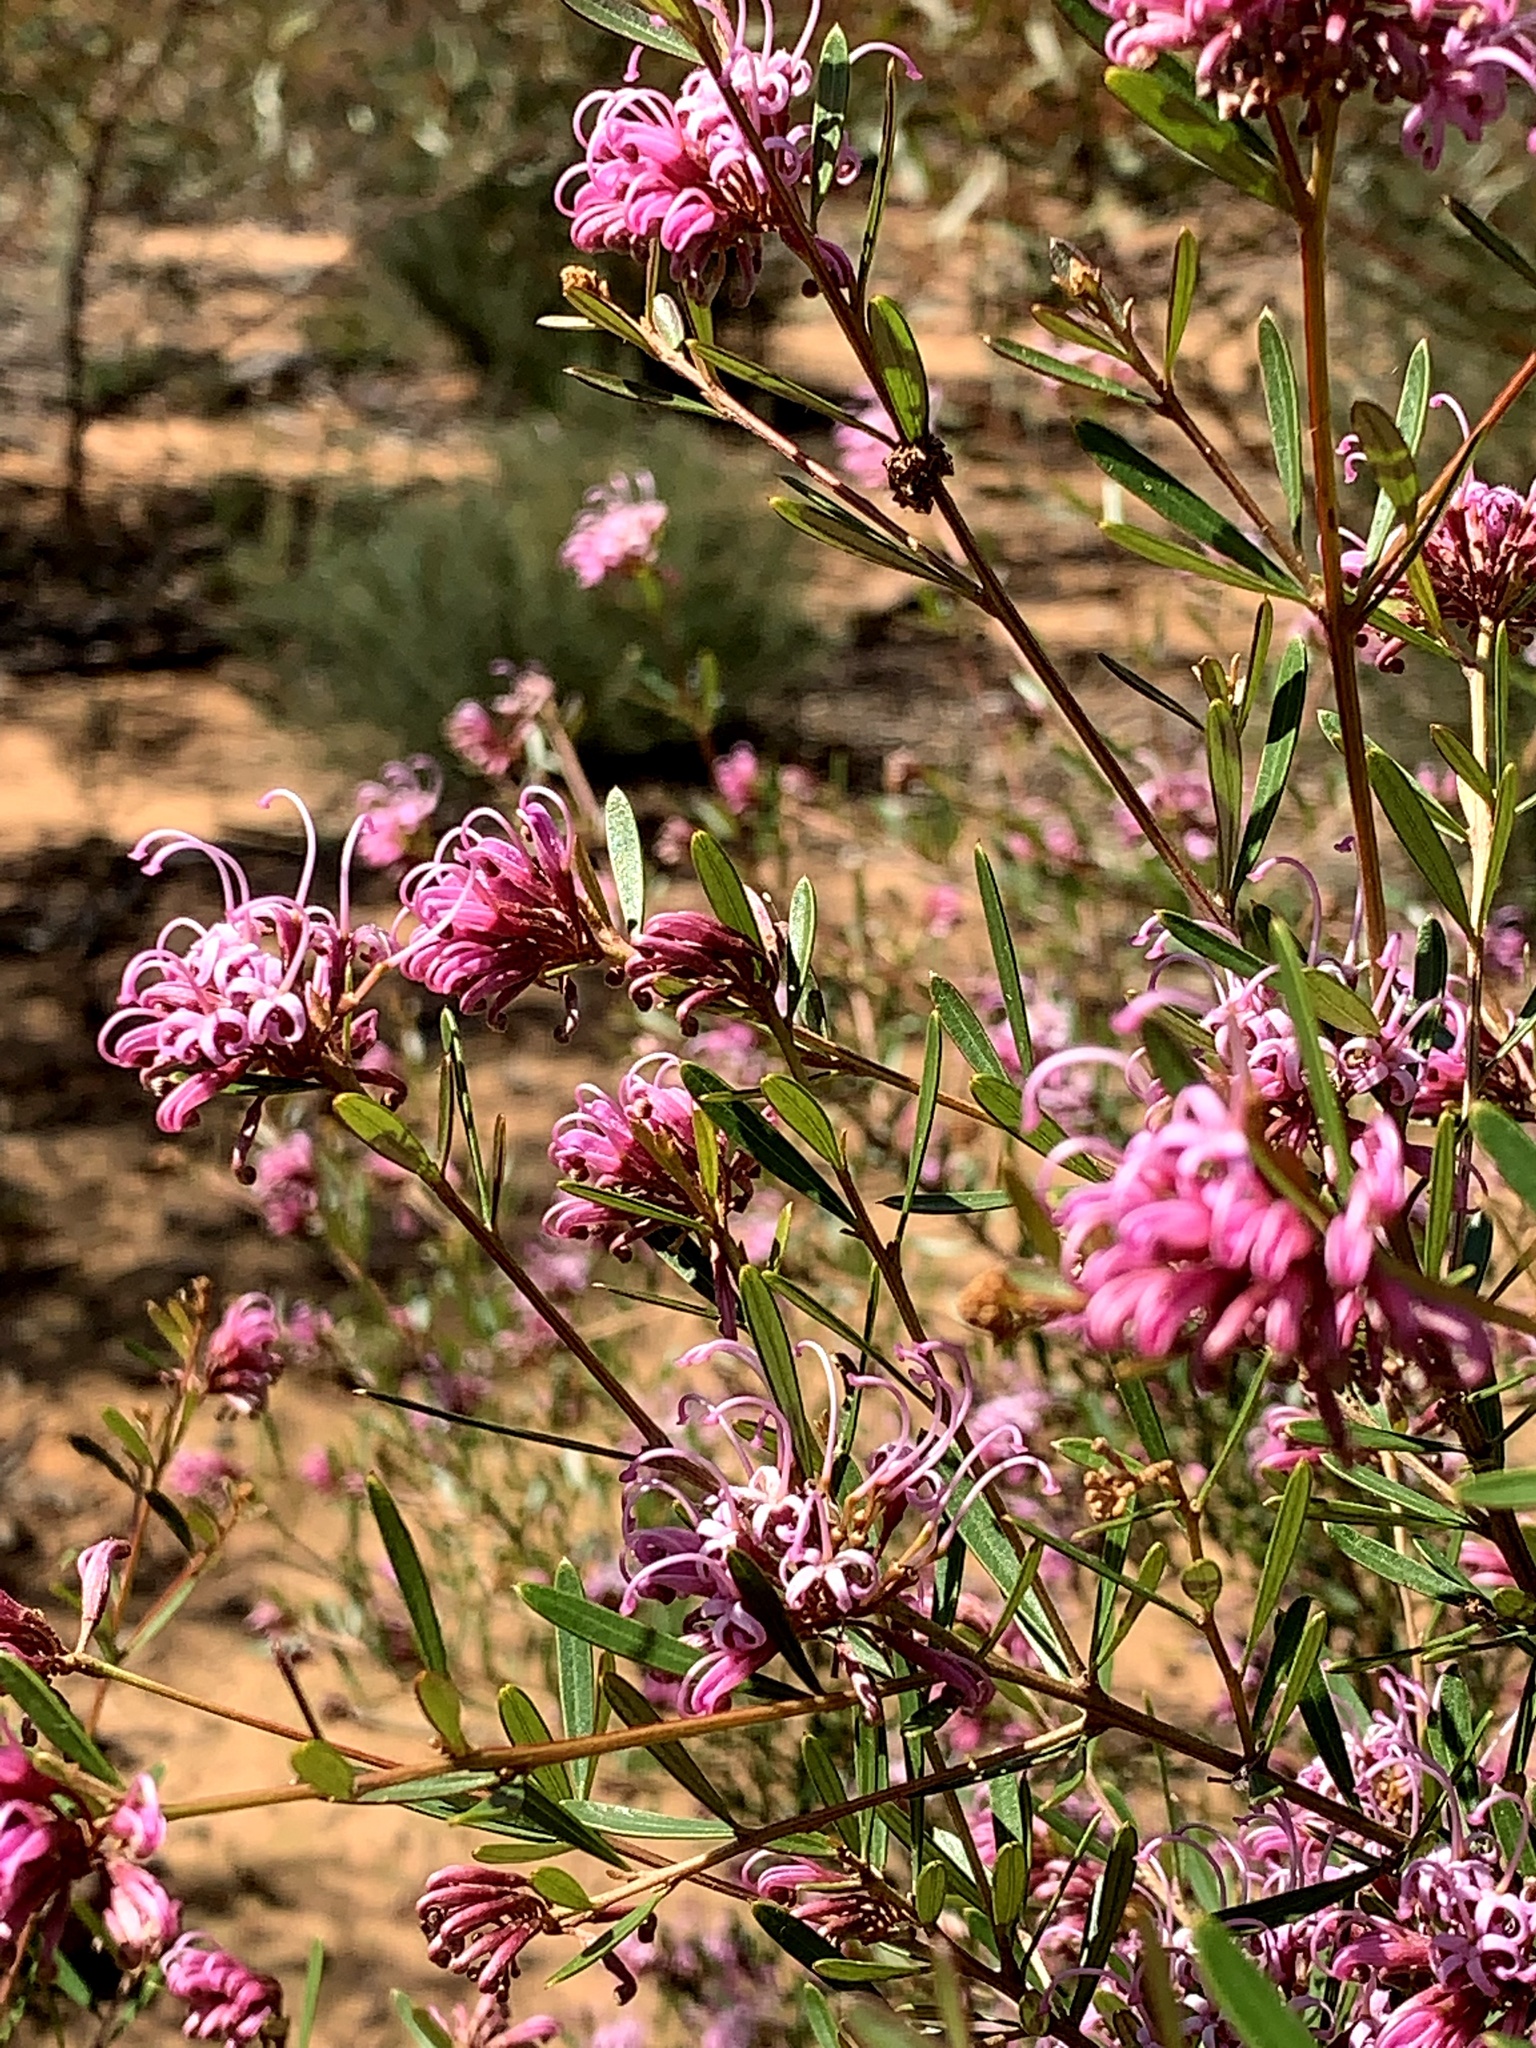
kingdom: Plantae
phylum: Tracheophyta
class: Magnoliopsida
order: Proteales
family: Proteaceae
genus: Grevillea
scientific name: Grevillea sericea
